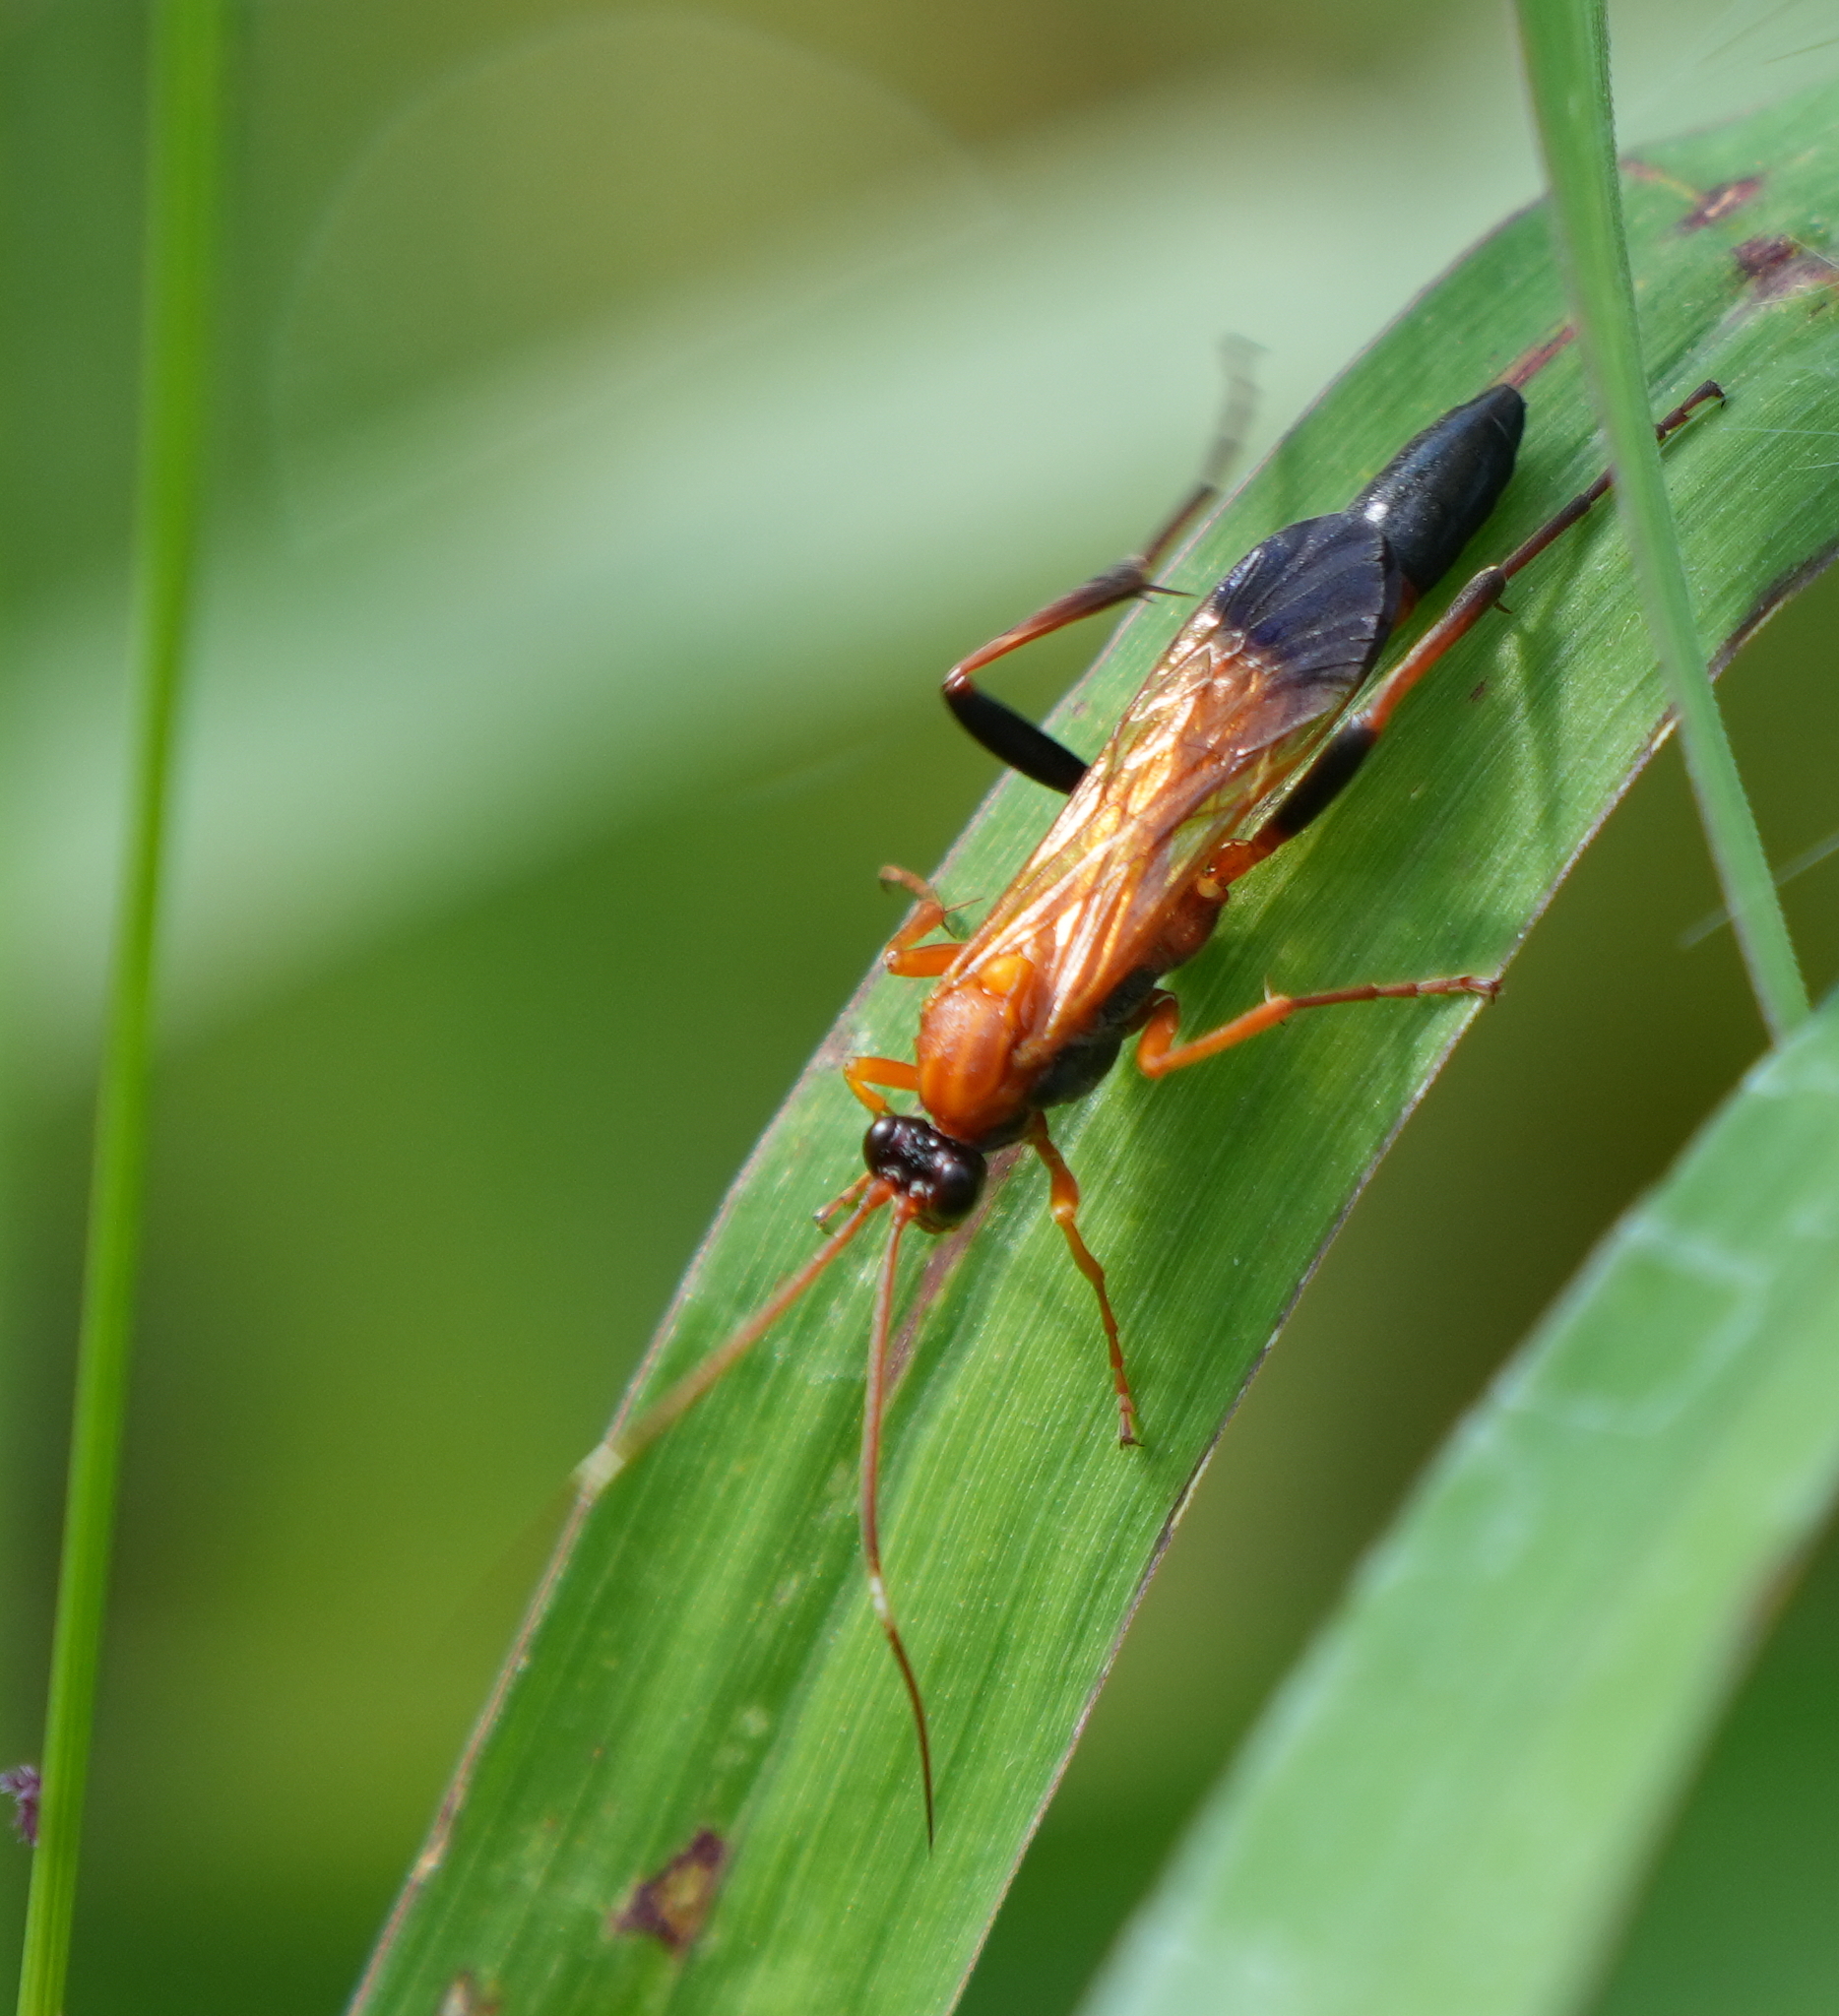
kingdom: Animalia
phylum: Arthropoda
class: Insecta
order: Hymenoptera
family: Ichneumonidae
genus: Ctenochares
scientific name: Ctenochares bicolorus
